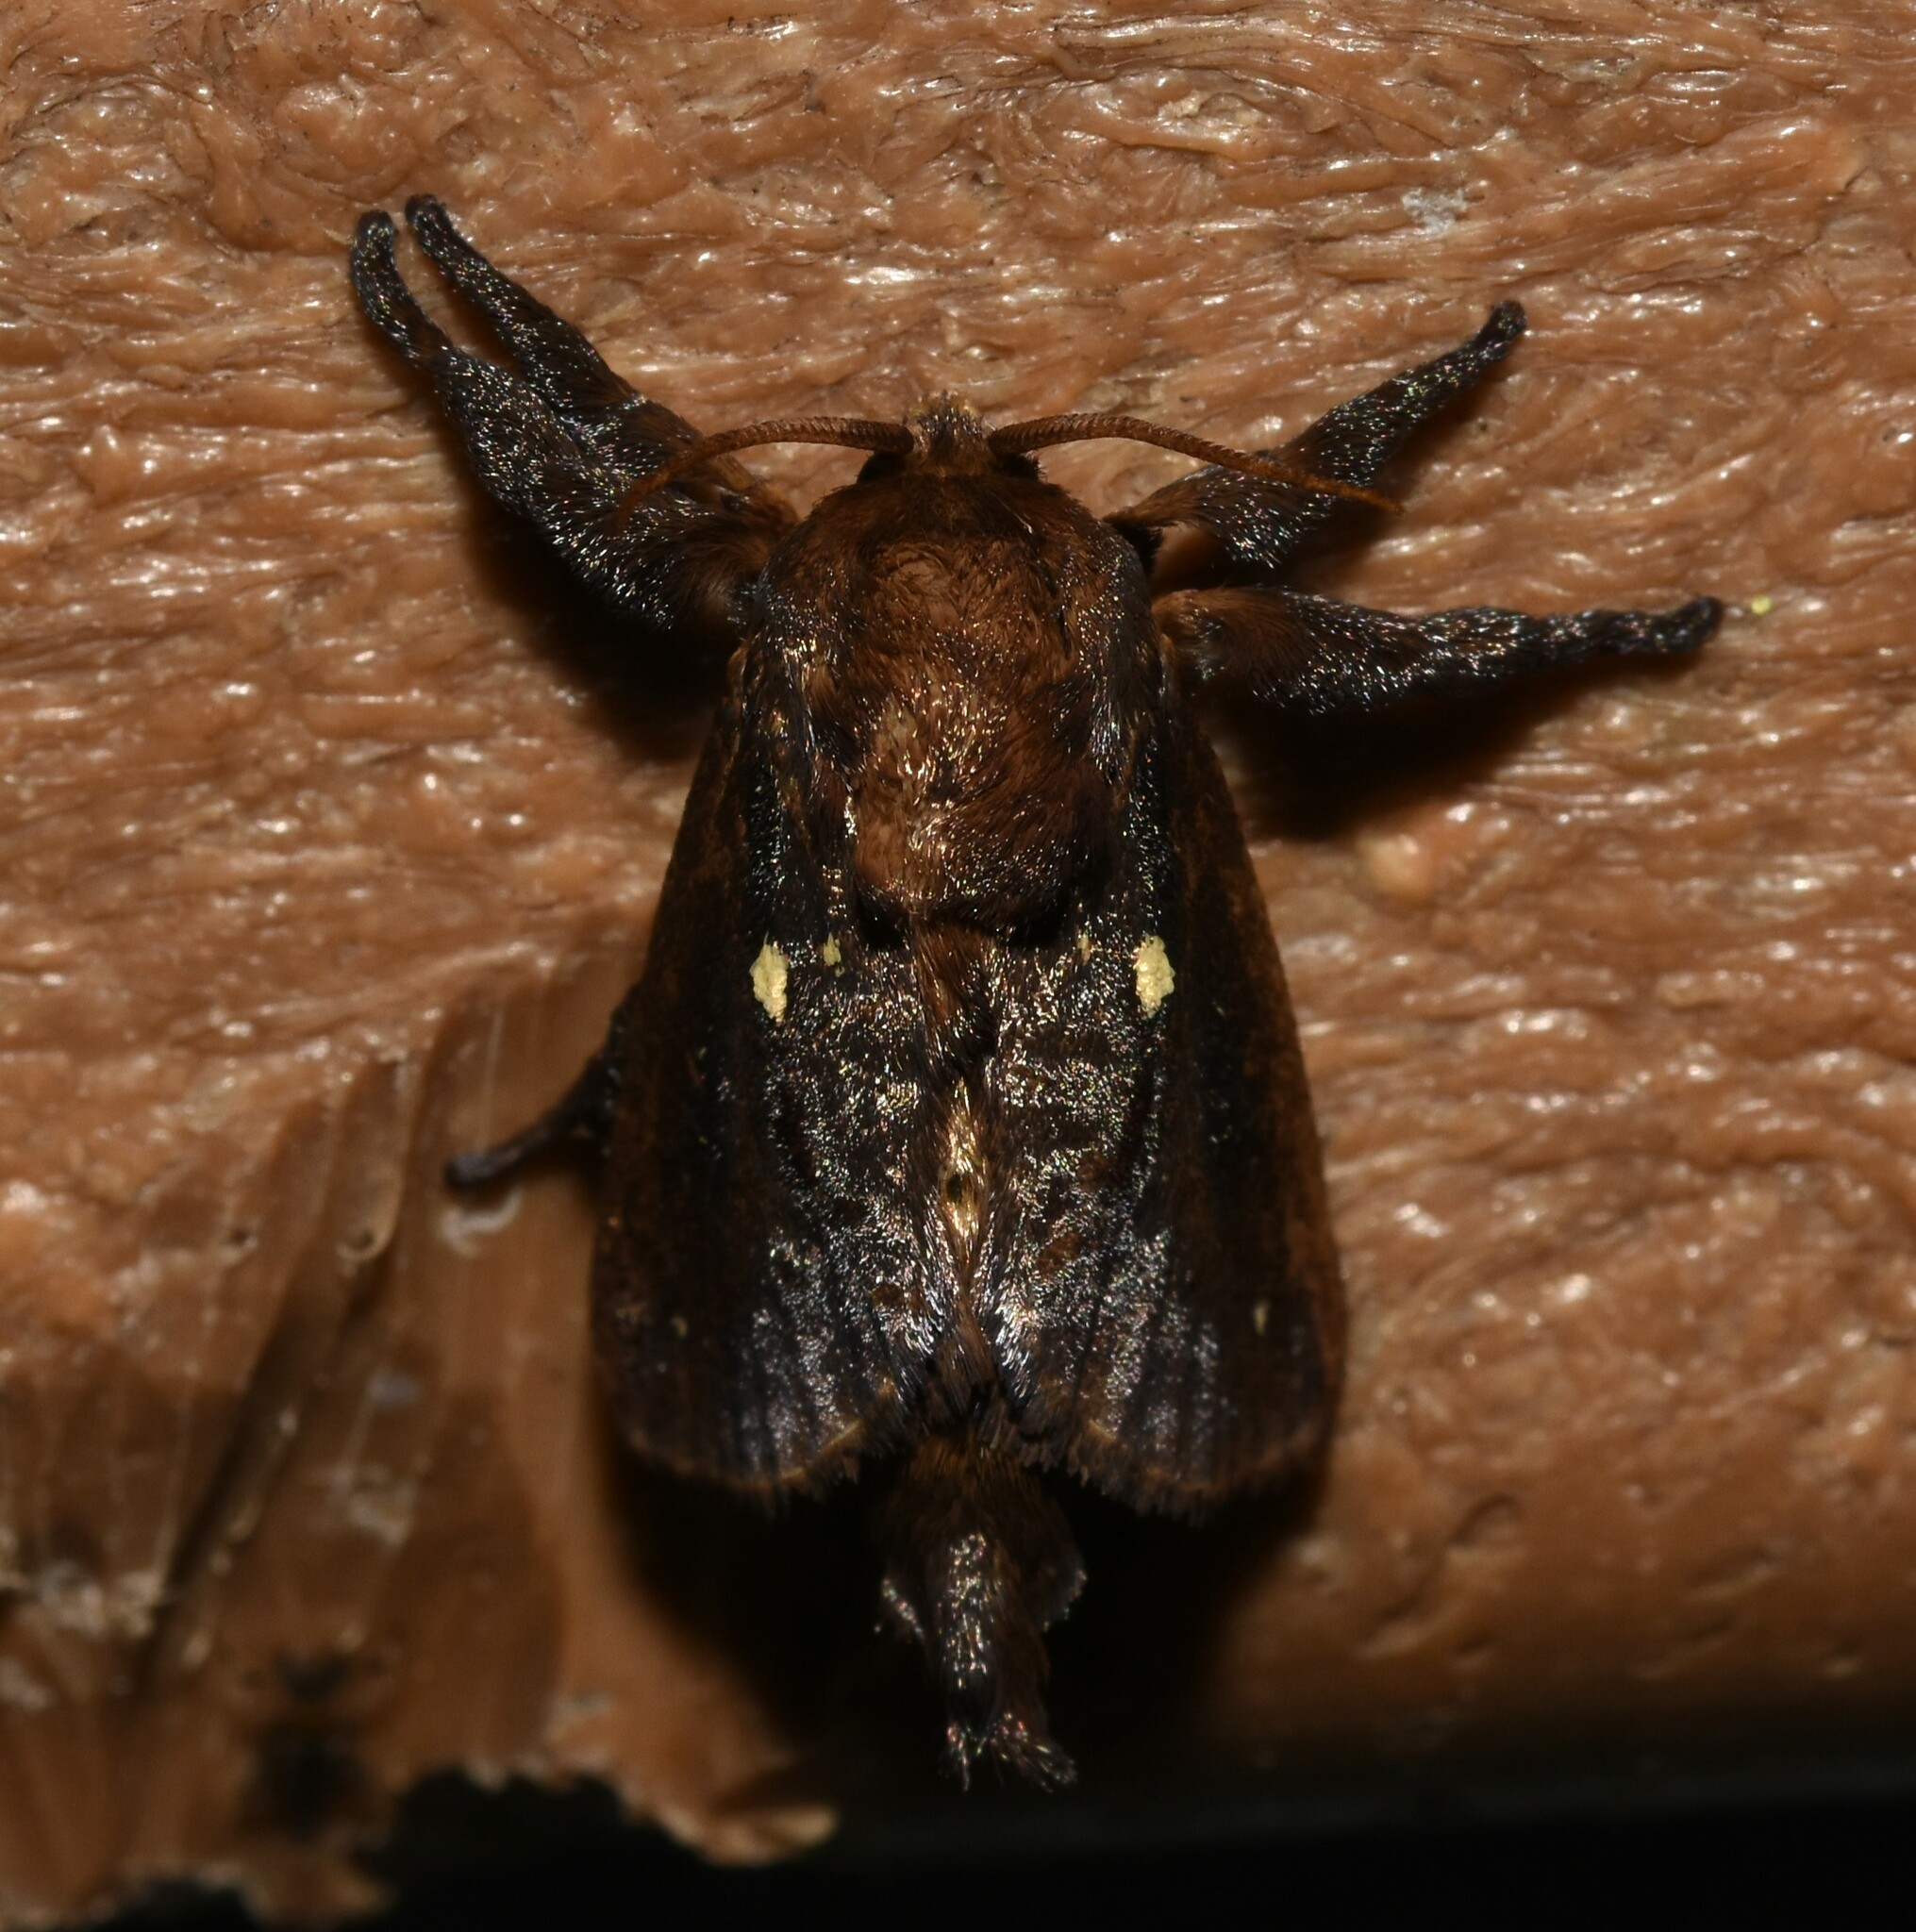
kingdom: Animalia
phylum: Arthropoda
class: Insecta
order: Lepidoptera
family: Limacodidae
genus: Acharia
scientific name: Acharia stimulea
